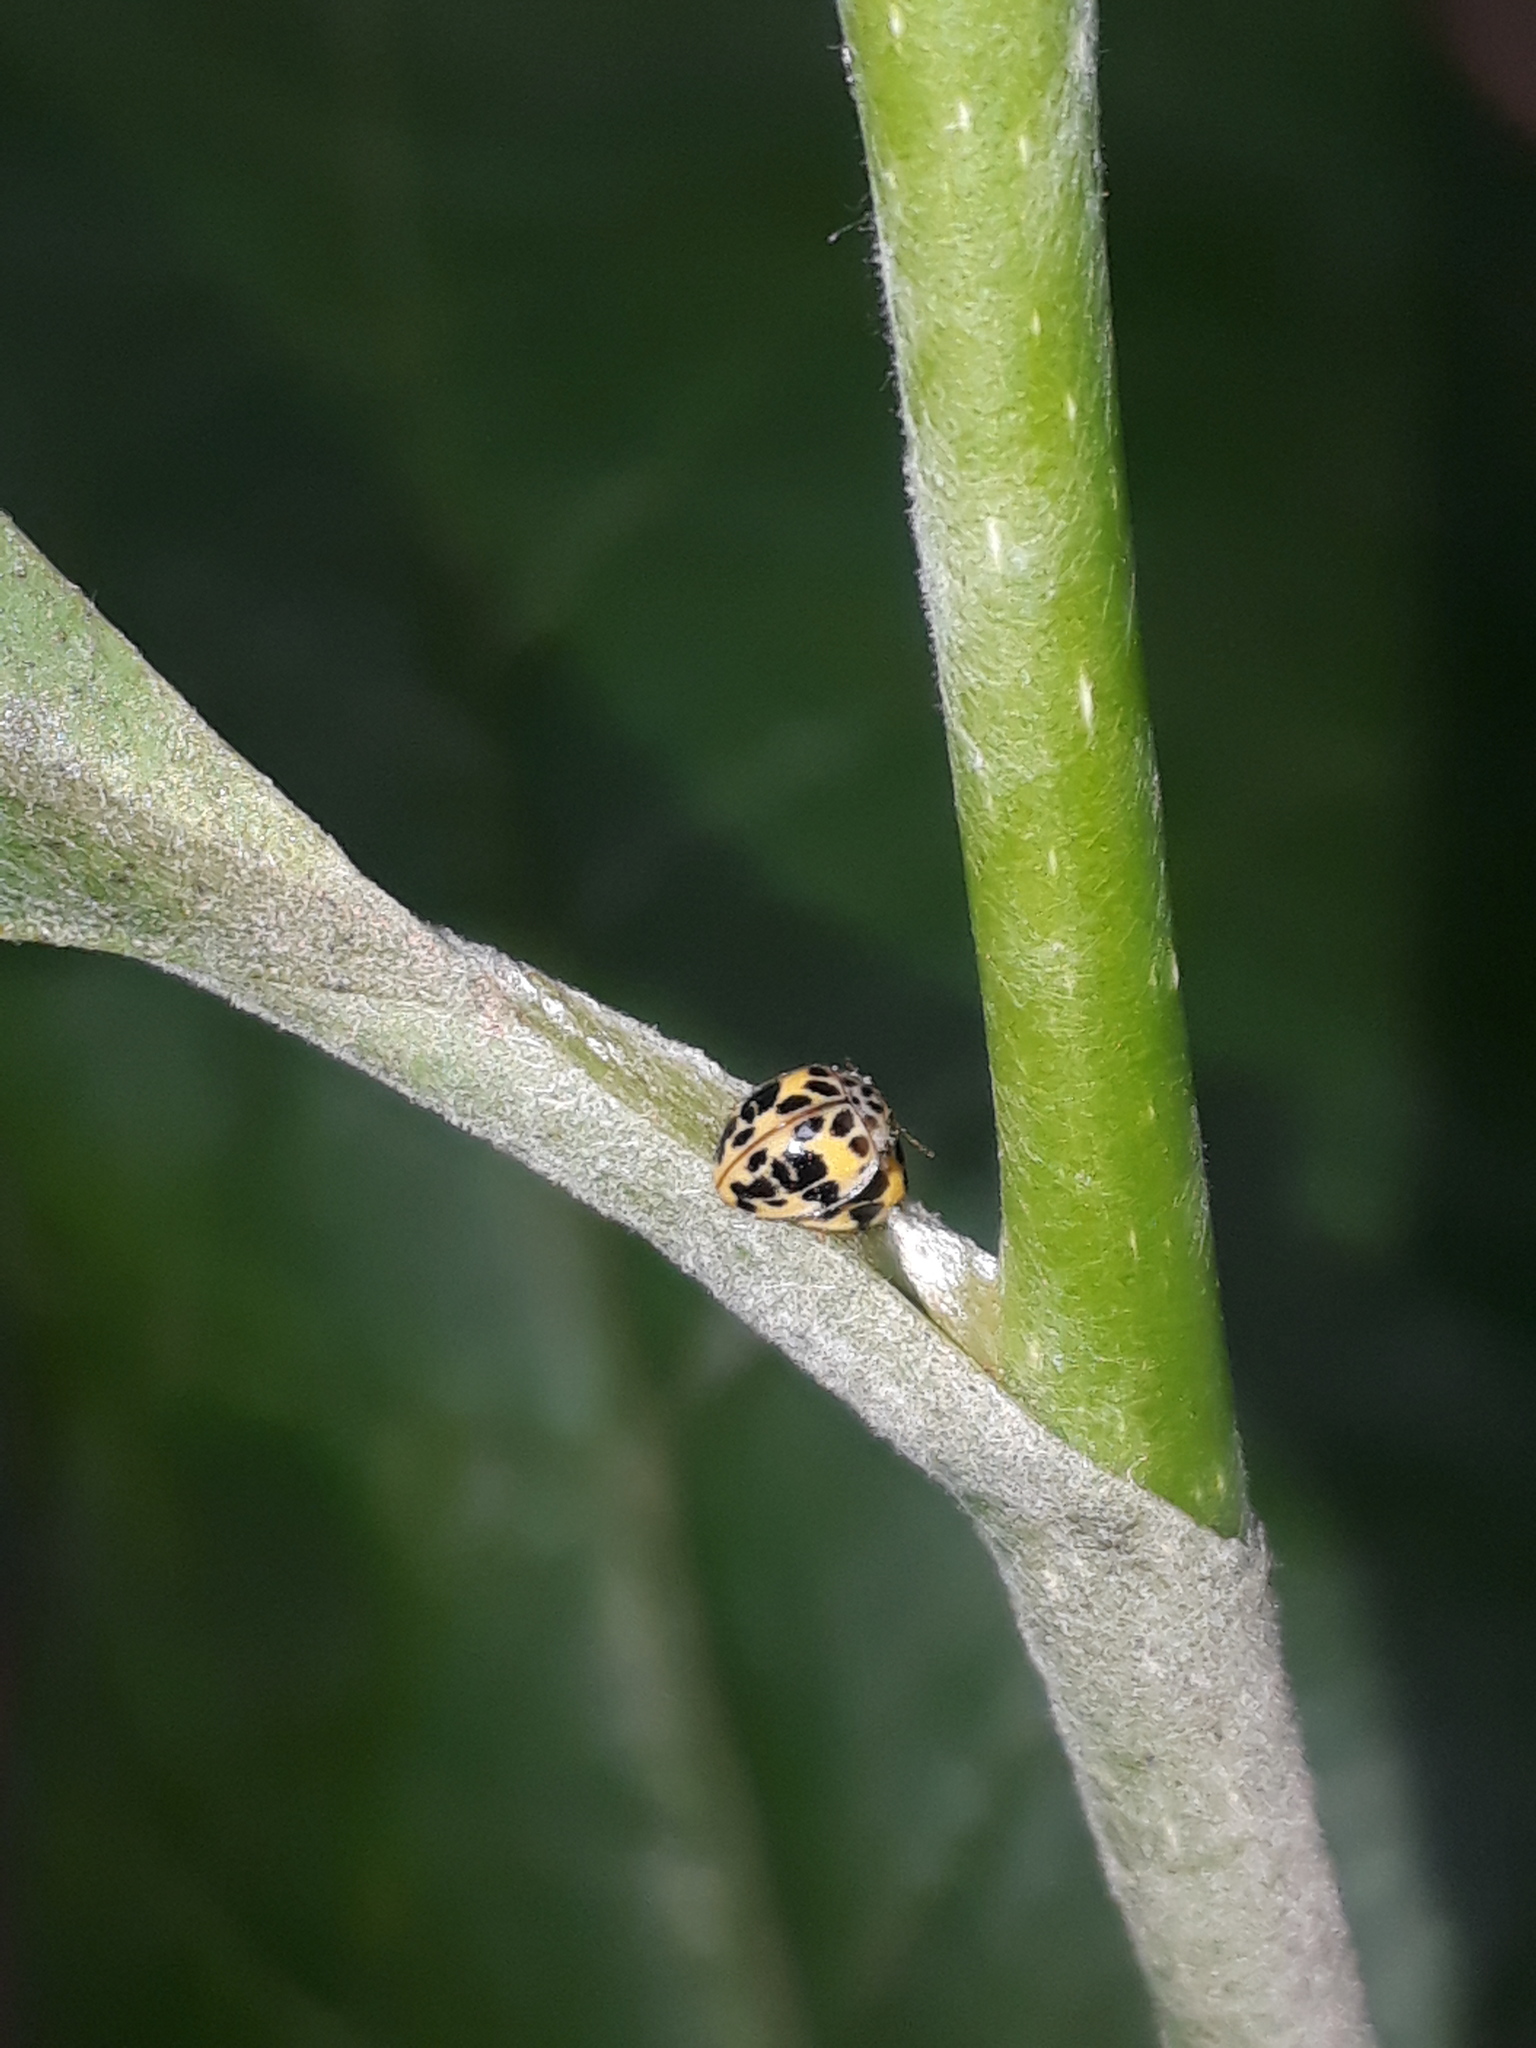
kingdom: Animalia
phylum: Arthropoda
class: Insecta
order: Coleoptera
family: Coccinellidae
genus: Psyllobora
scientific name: Psyllobora
